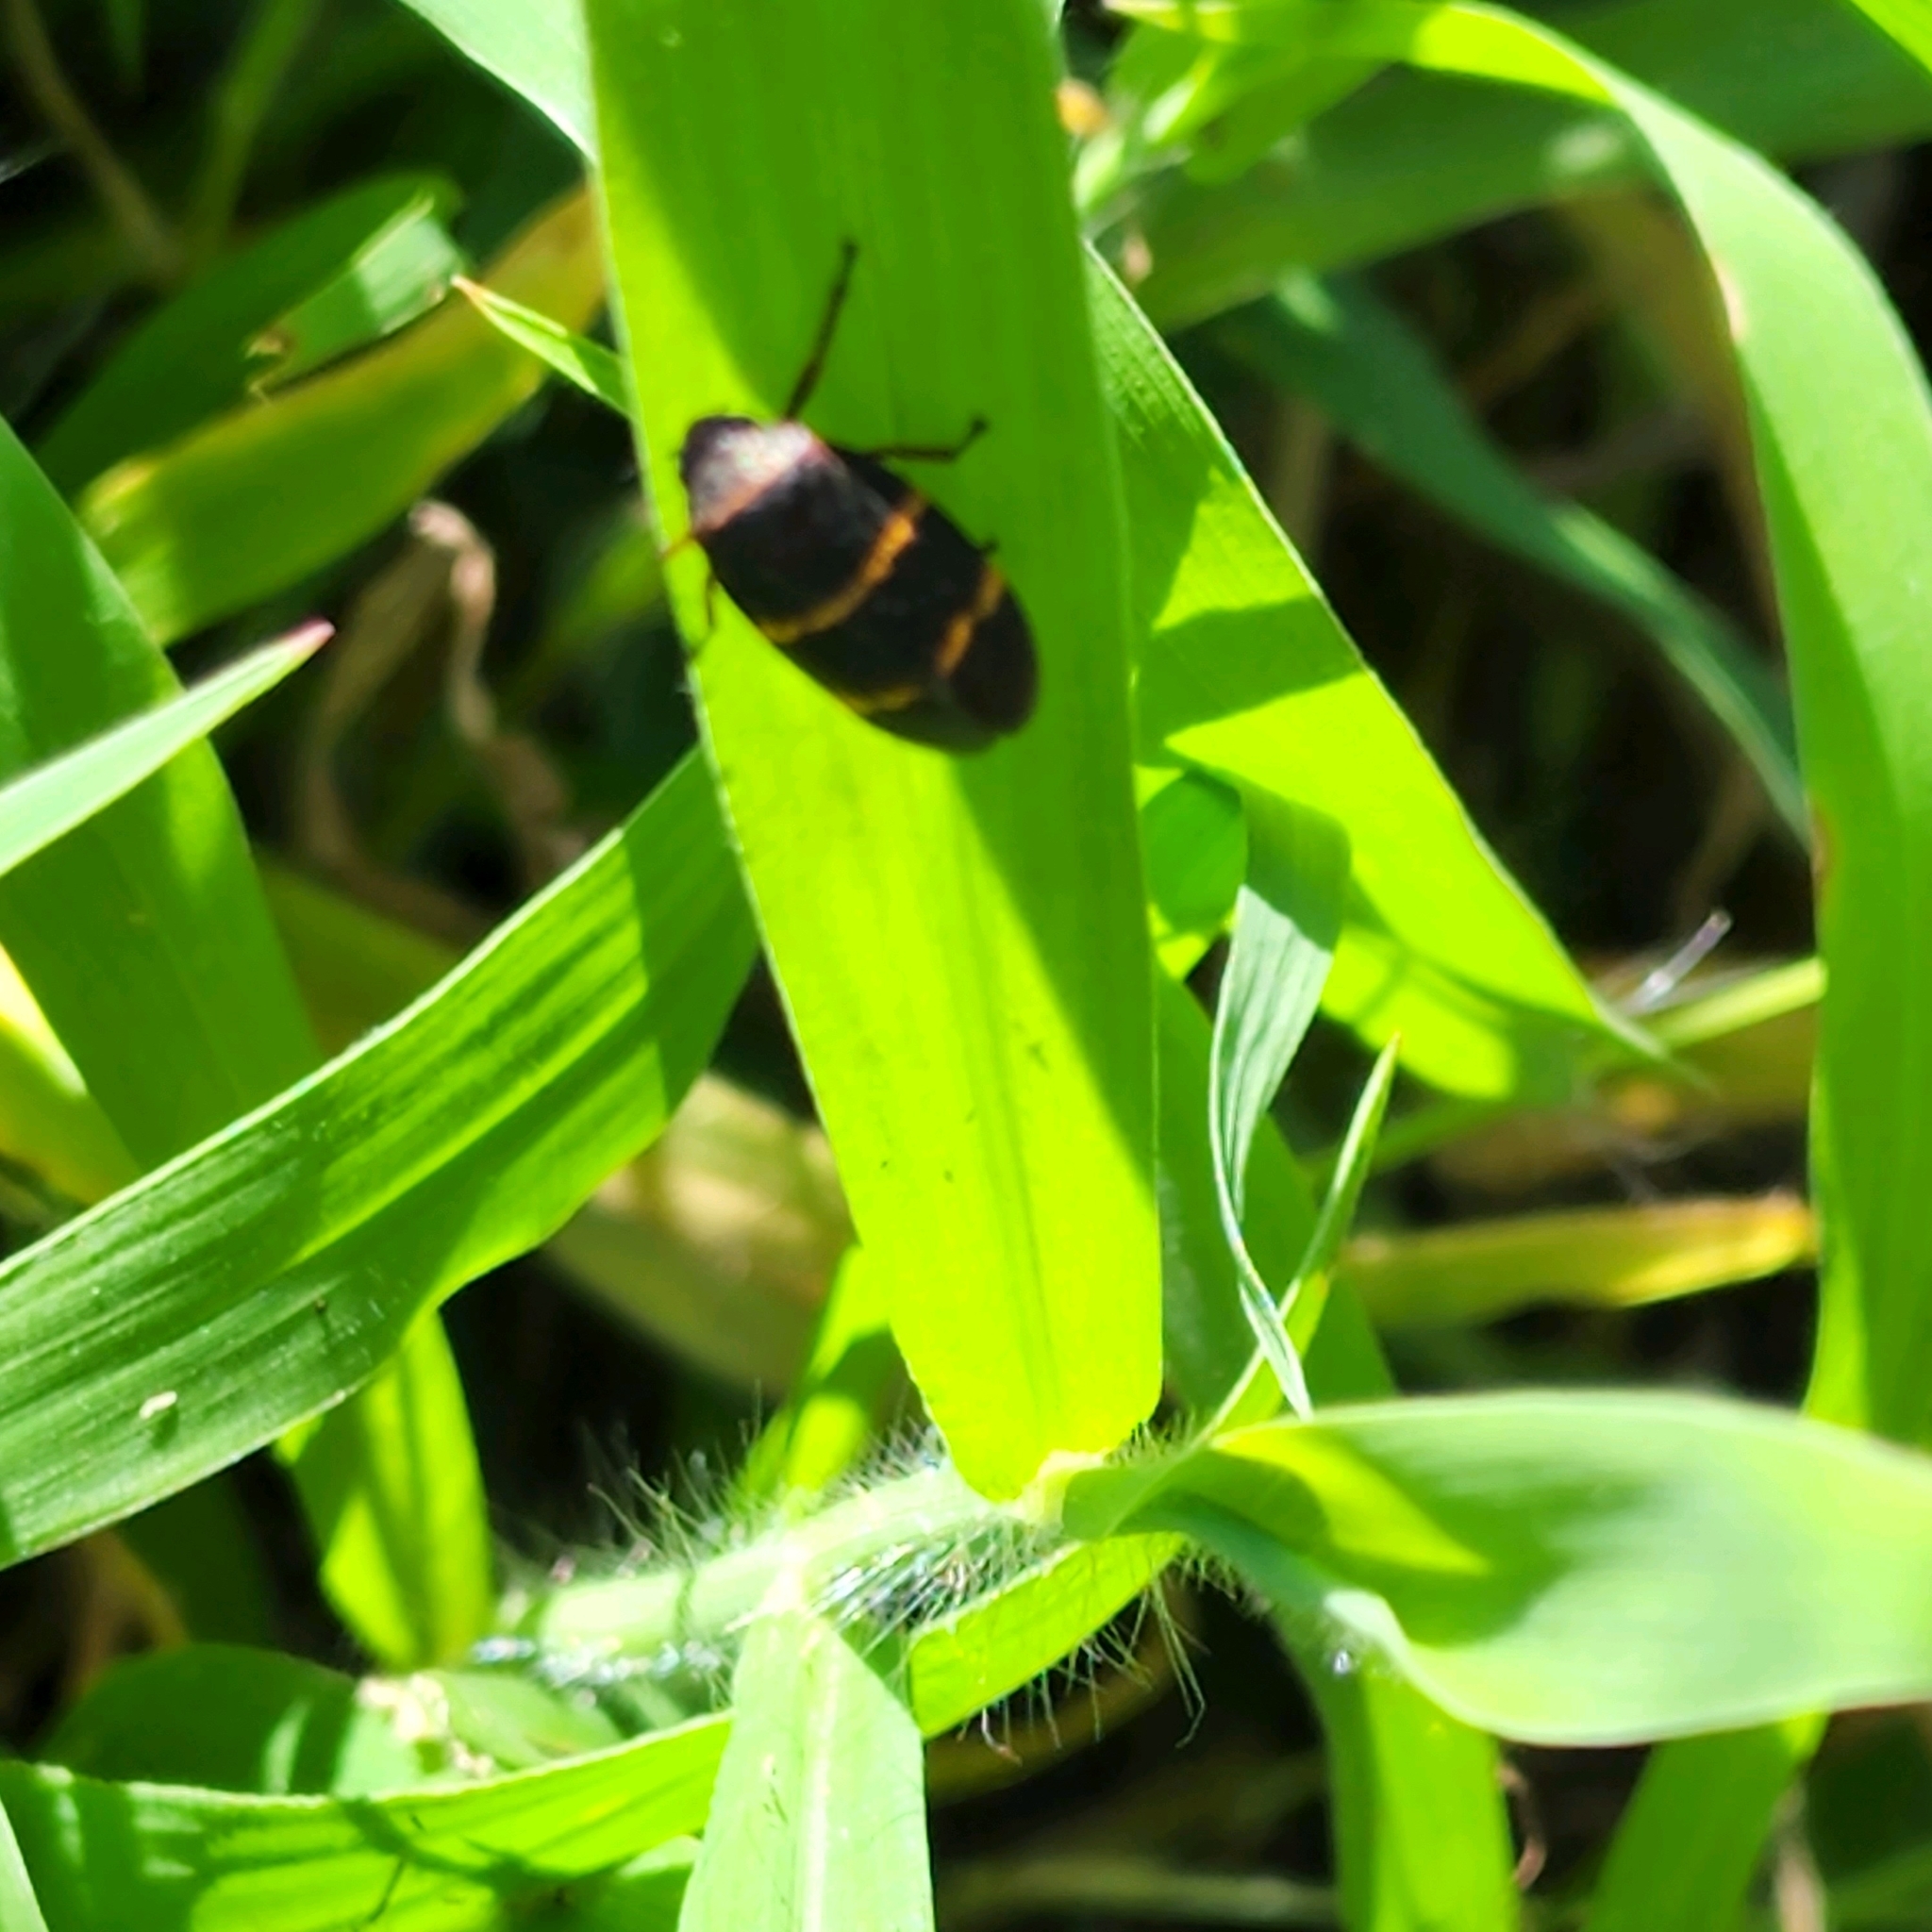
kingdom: Animalia
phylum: Arthropoda
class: Insecta
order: Hemiptera
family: Cercopidae
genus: Prosapia
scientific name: Prosapia bicincta
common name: Twolined spittlebug
